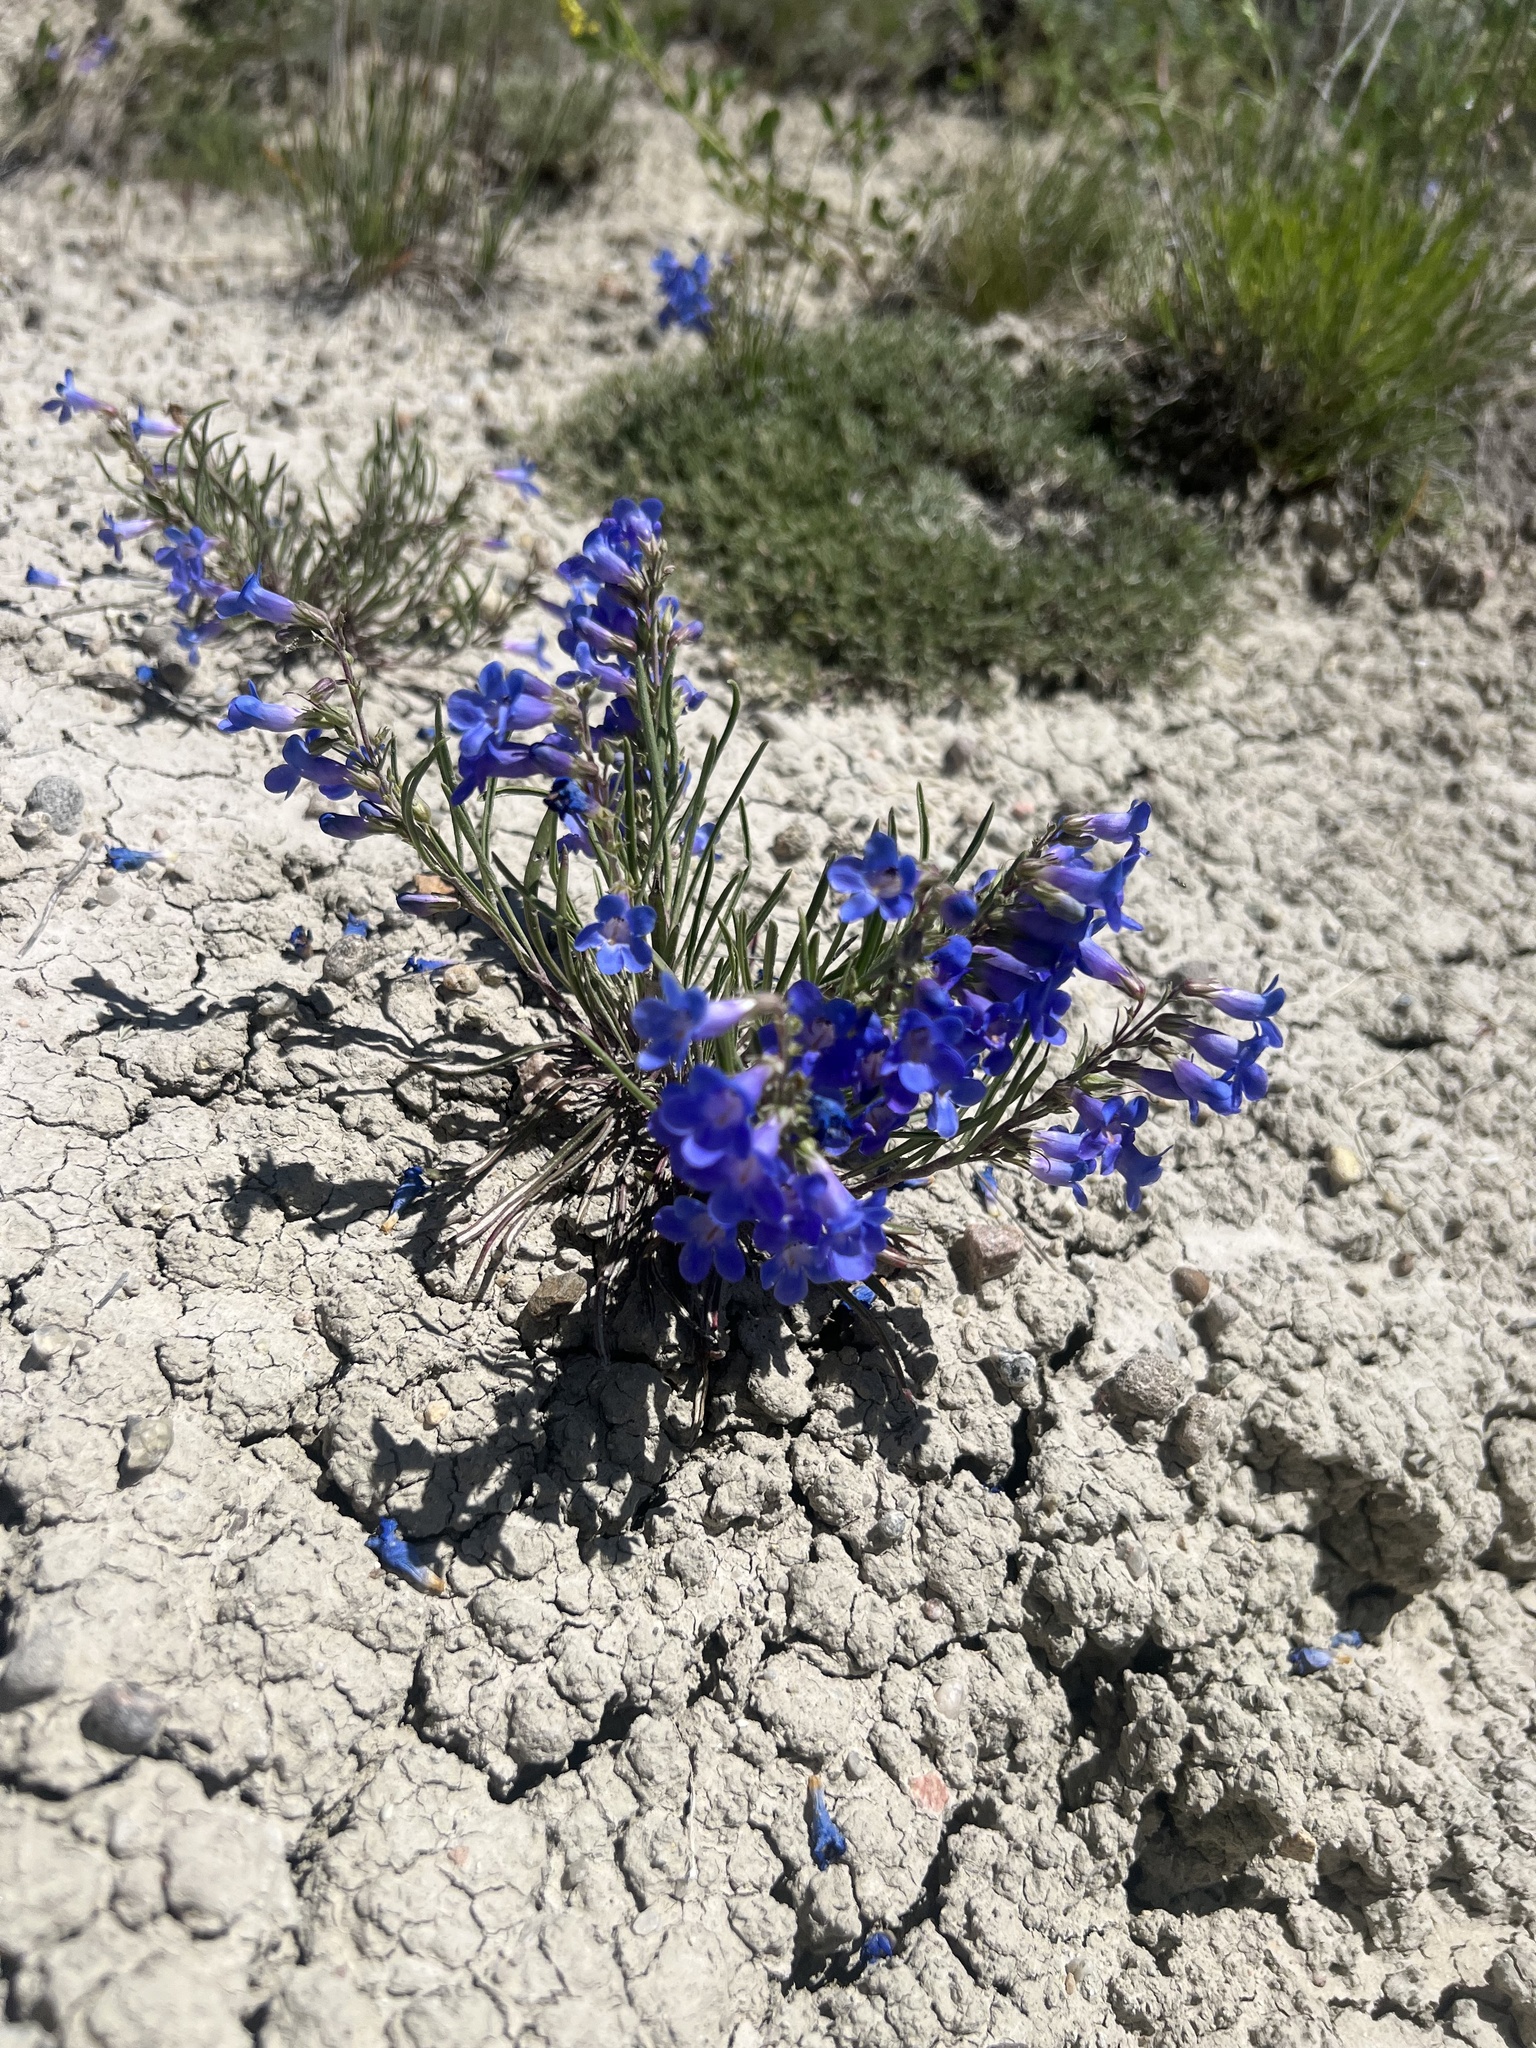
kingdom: Plantae
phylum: Tracheophyta
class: Magnoliopsida
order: Lamiales
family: Plantaginaceae
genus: Penstemon
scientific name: Penstemon penlandii
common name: Penland's beardtongue
